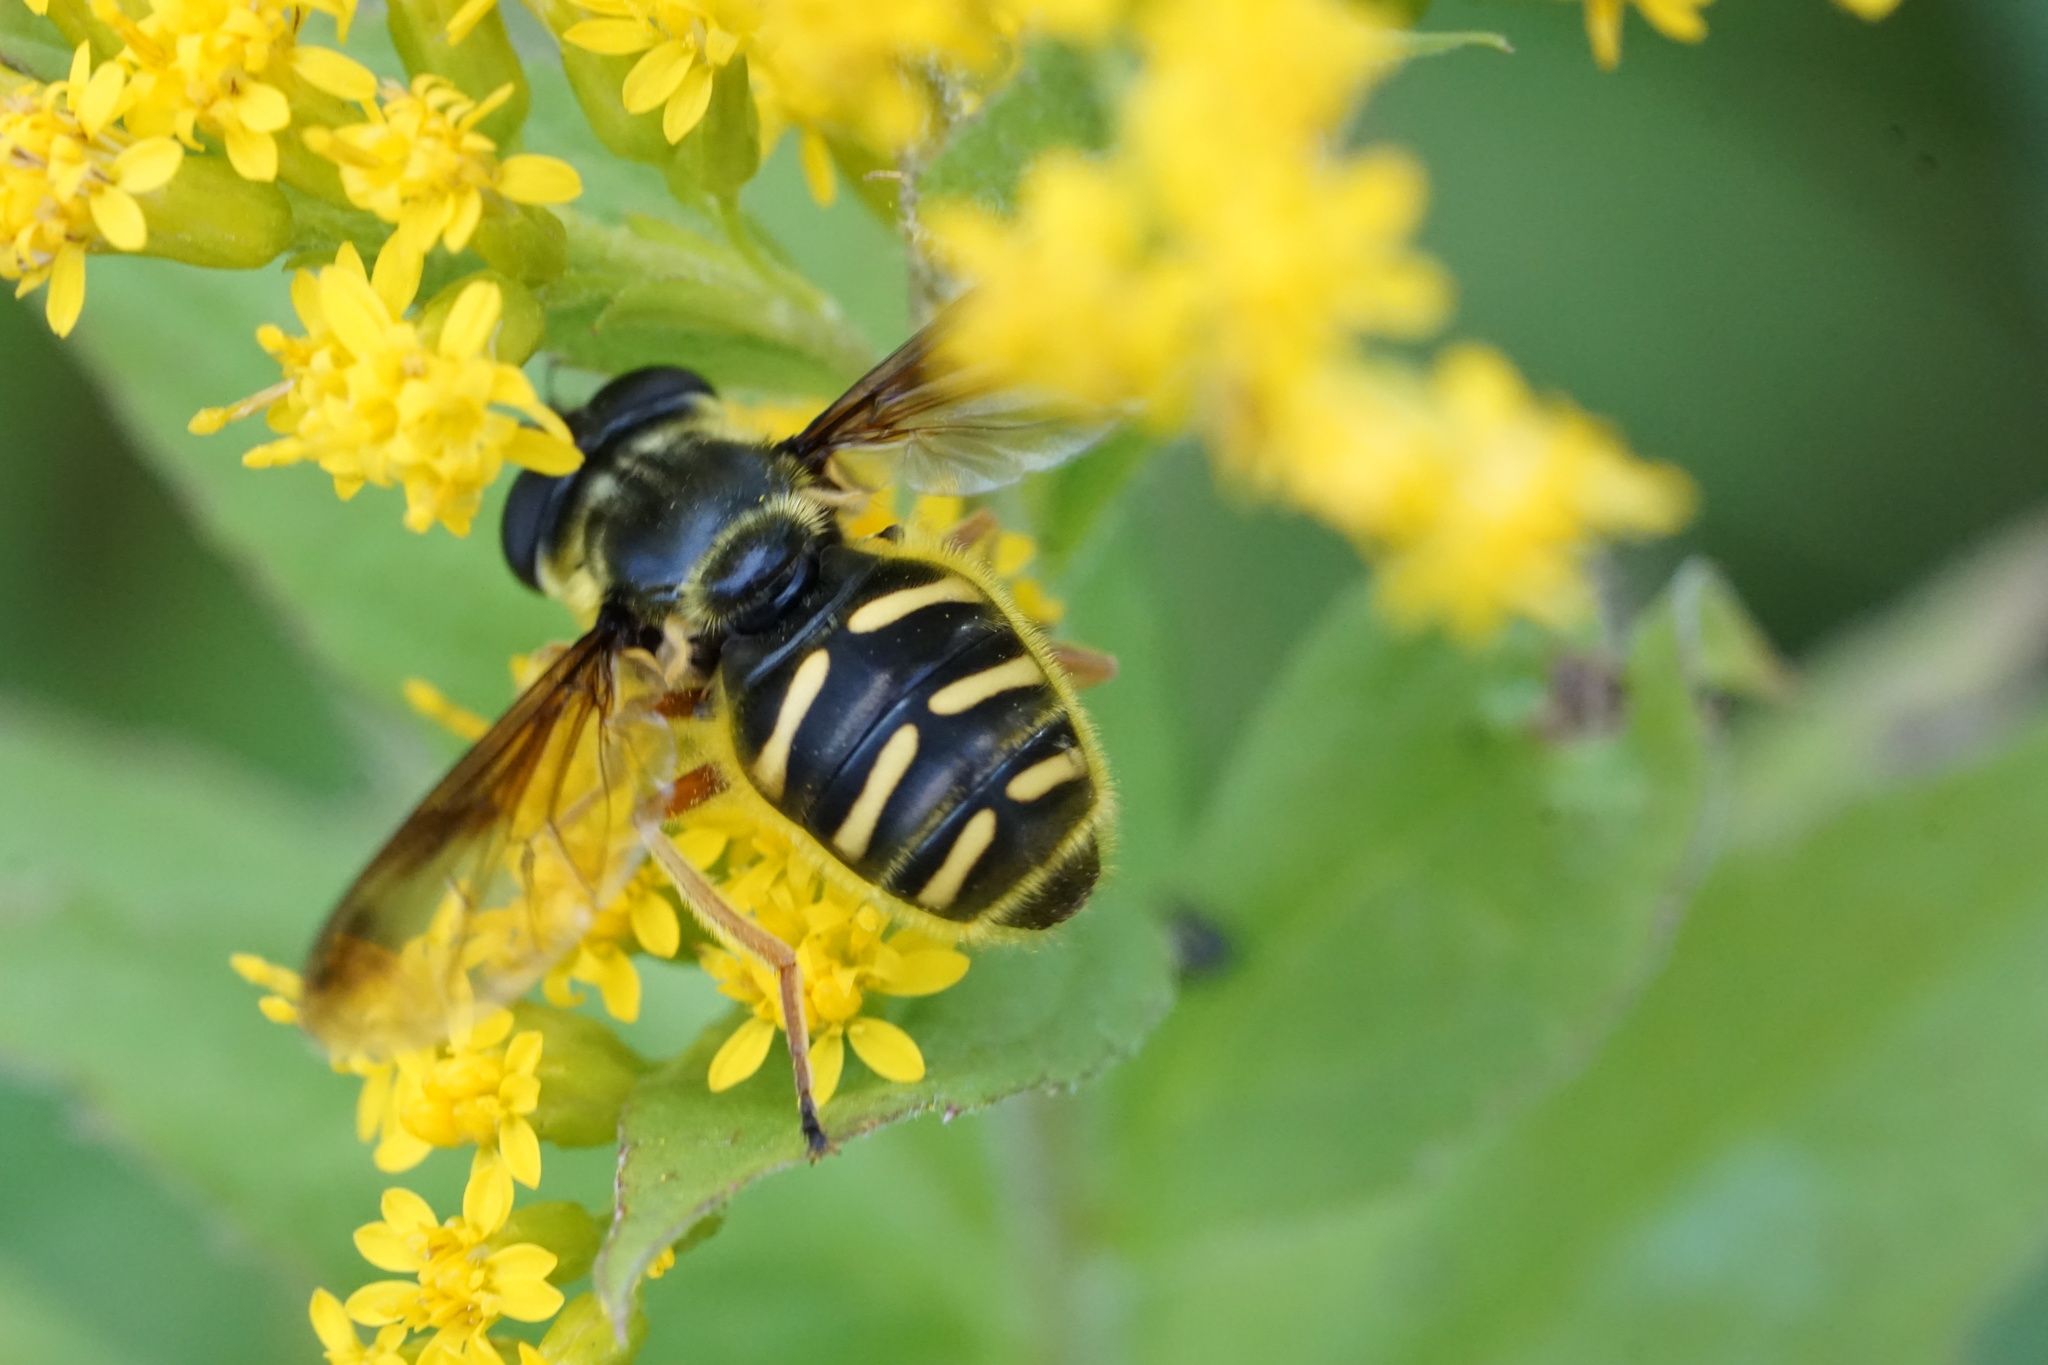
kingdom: Animalia
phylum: Arthropoda
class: Insecta
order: Diptera
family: Syrphidae
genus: Sericomyia
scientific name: Sericomyia chrysotoxoides
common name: Oblique-banded pond fly
